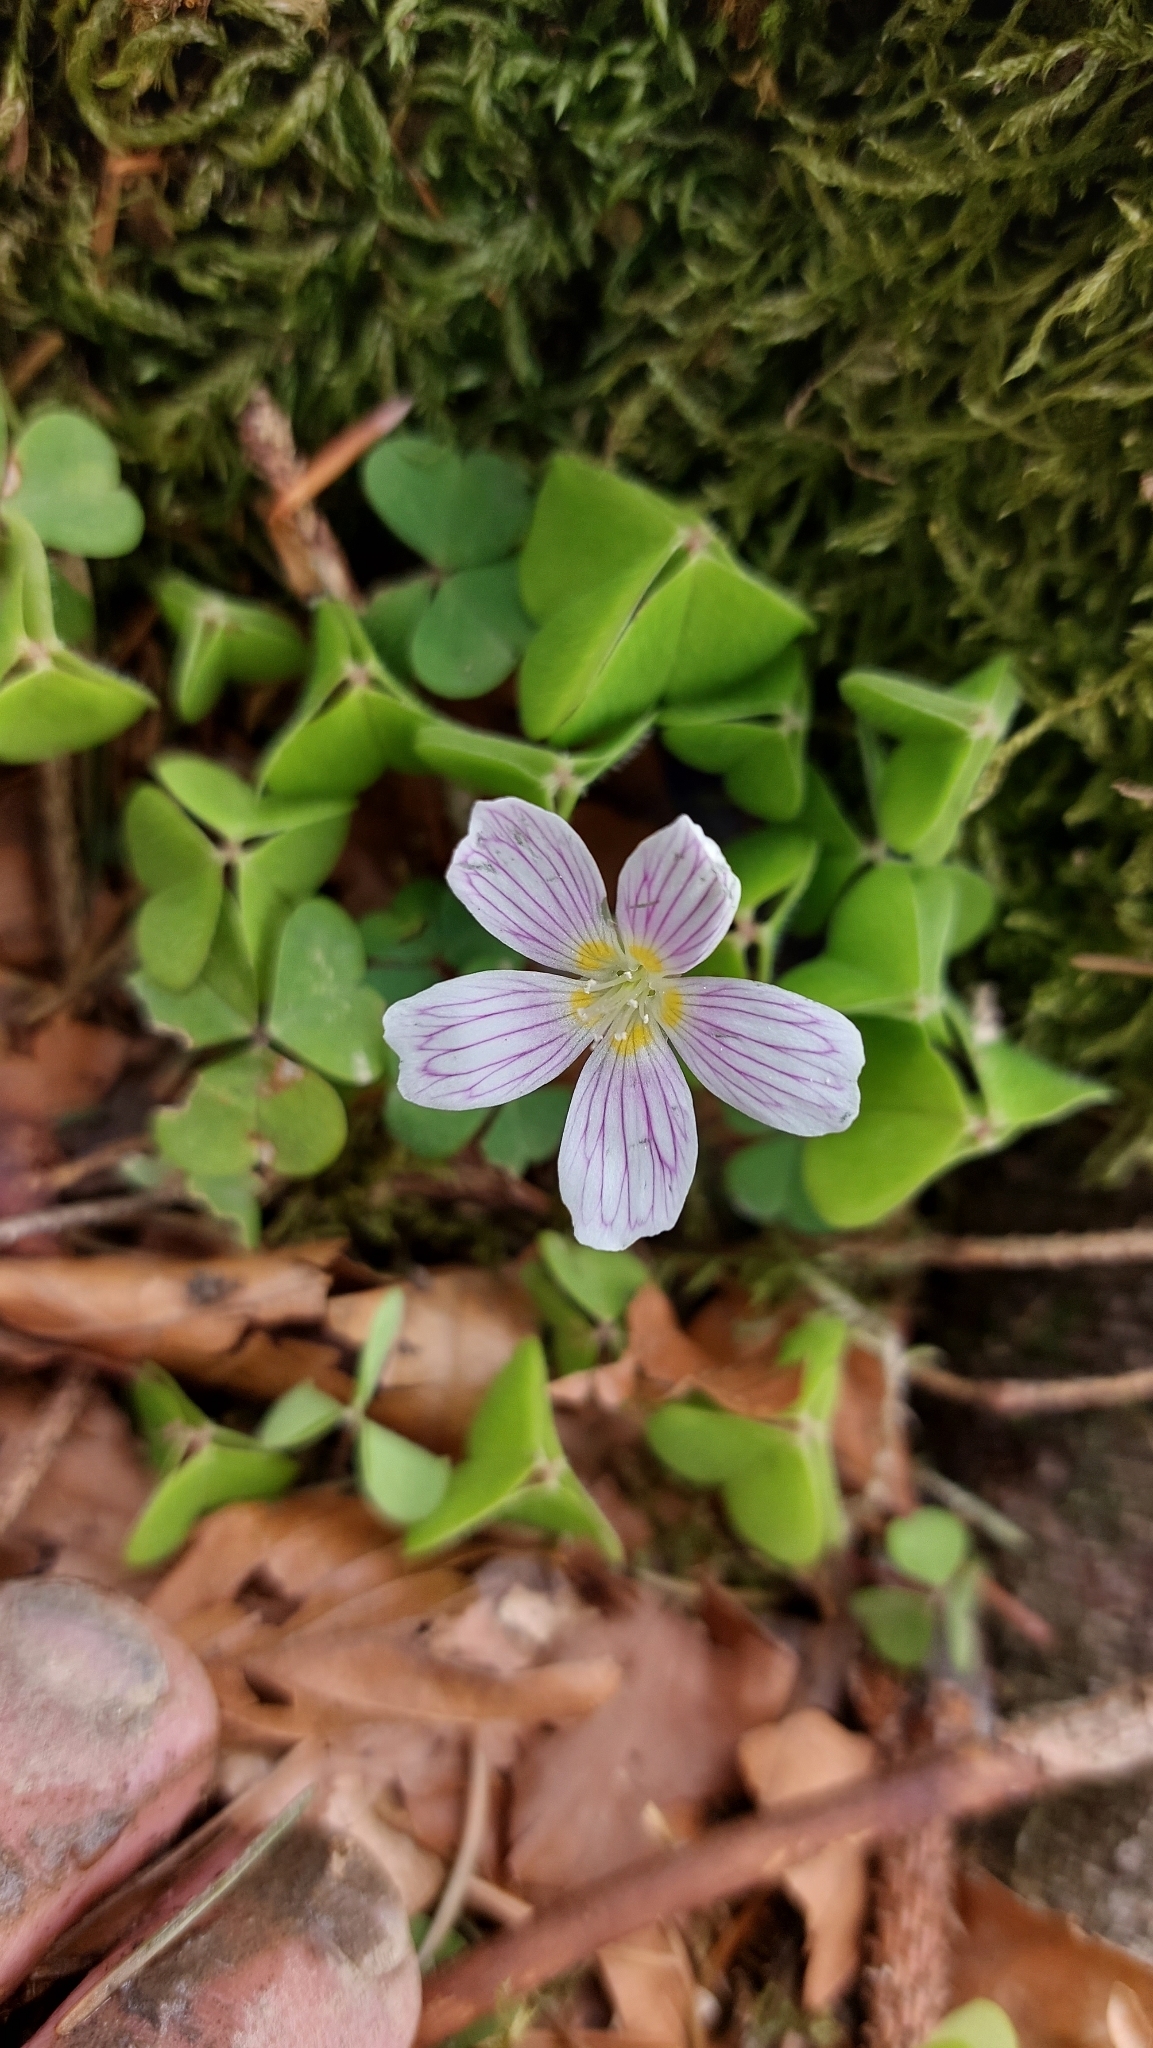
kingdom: Plantae
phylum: Tracheophyta
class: Magnoliopsida
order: Oxalidales
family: Oxalidaceae
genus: Oxalis
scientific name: Oxalis acetosella
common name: Wood-sorrel
